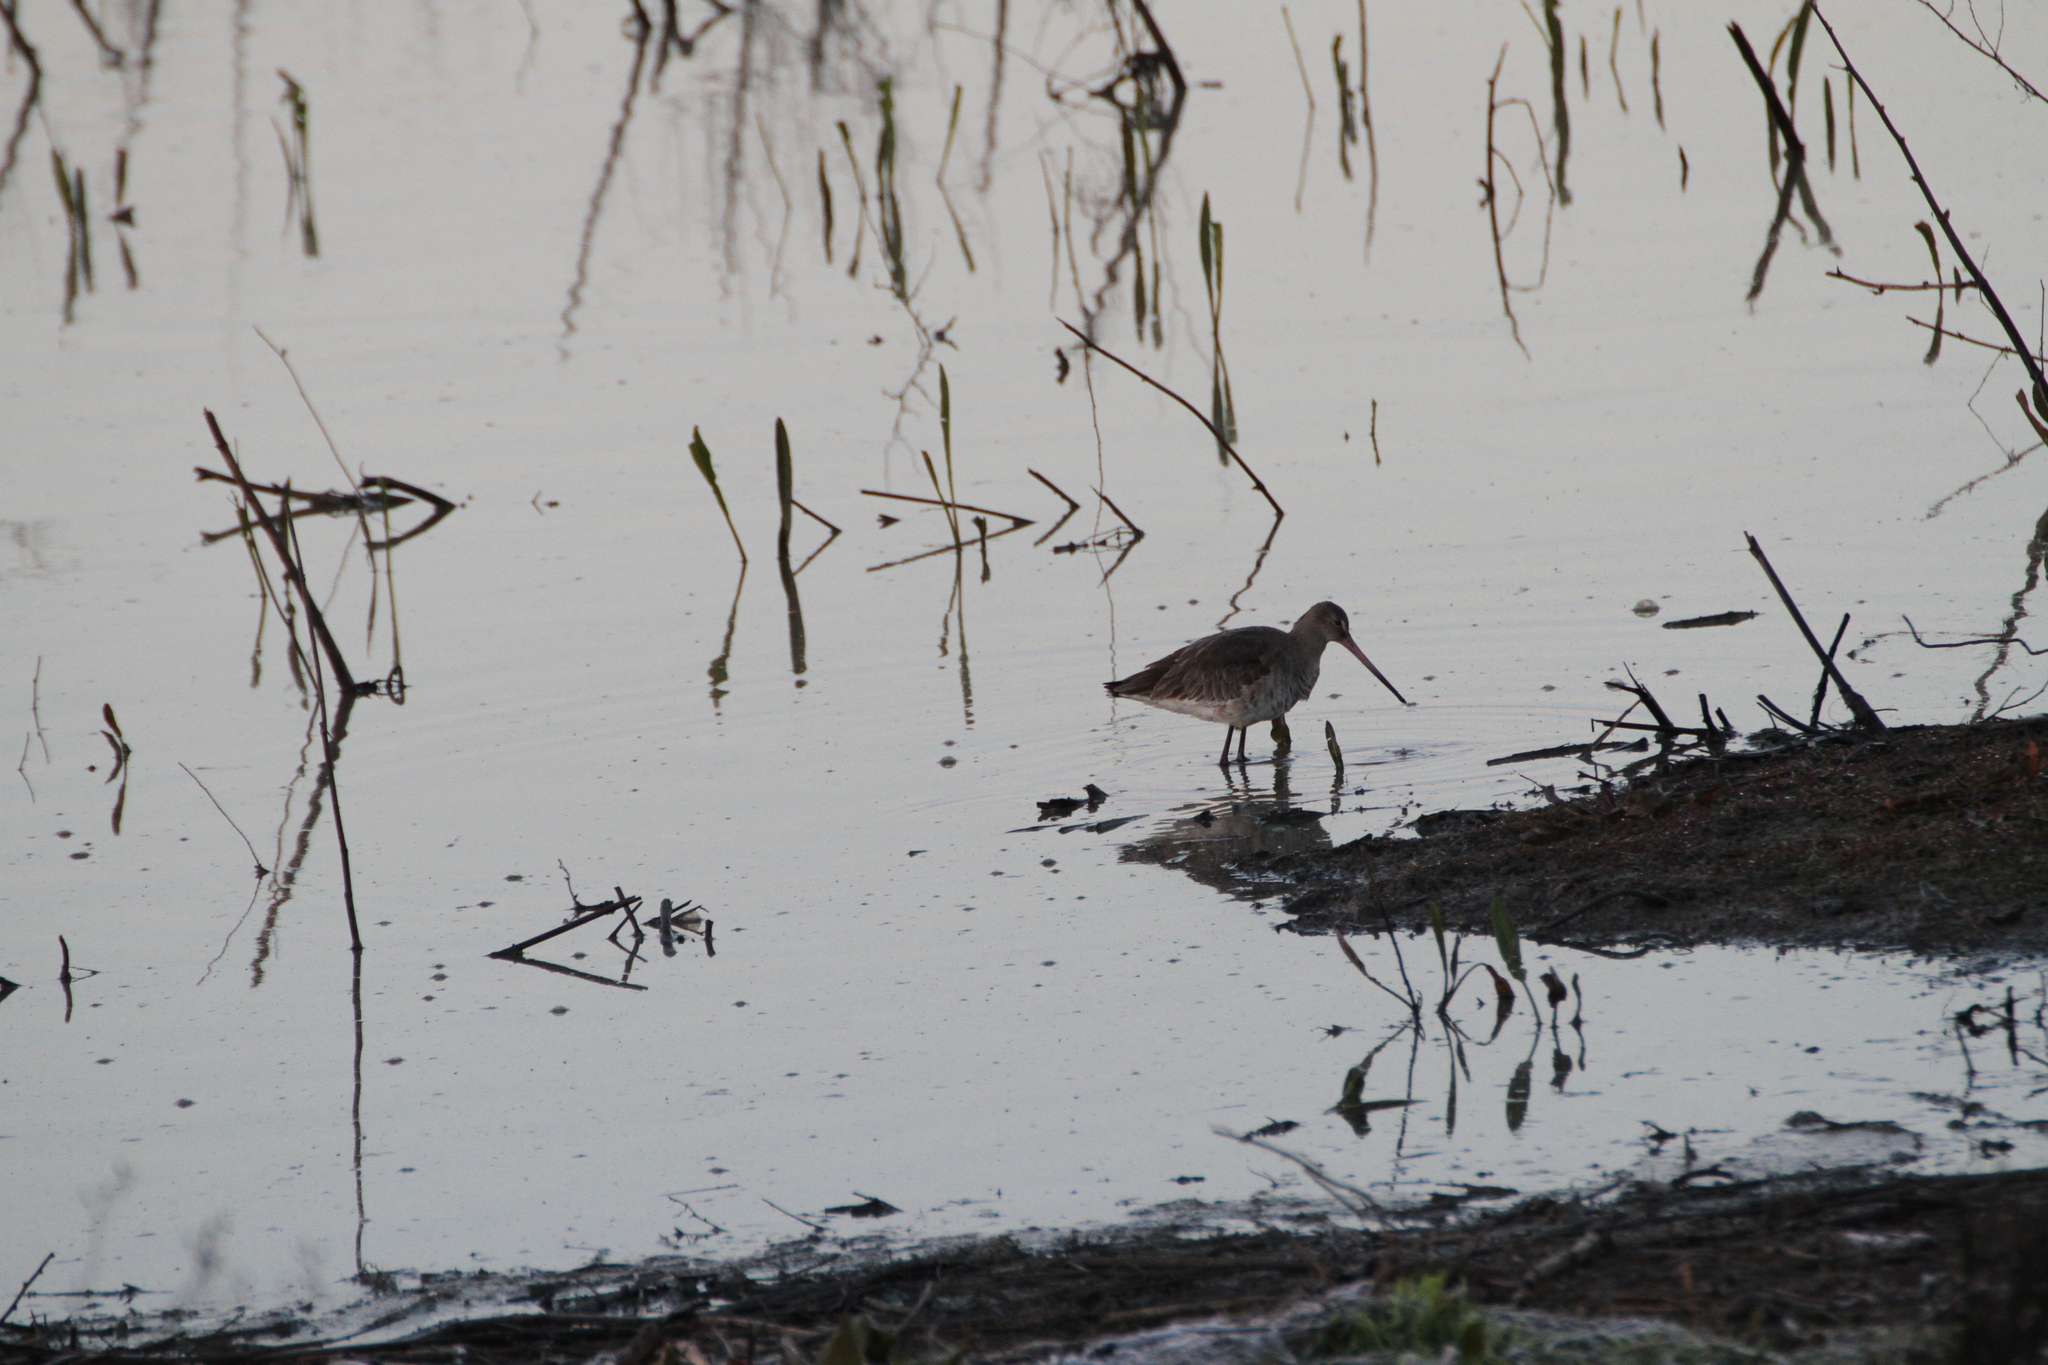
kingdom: Animalia
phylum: Chordata
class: Aves
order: Charadriiformes
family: Scolopacidae
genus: Limosa
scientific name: Limosa limosa
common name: Black-tailed godwit
